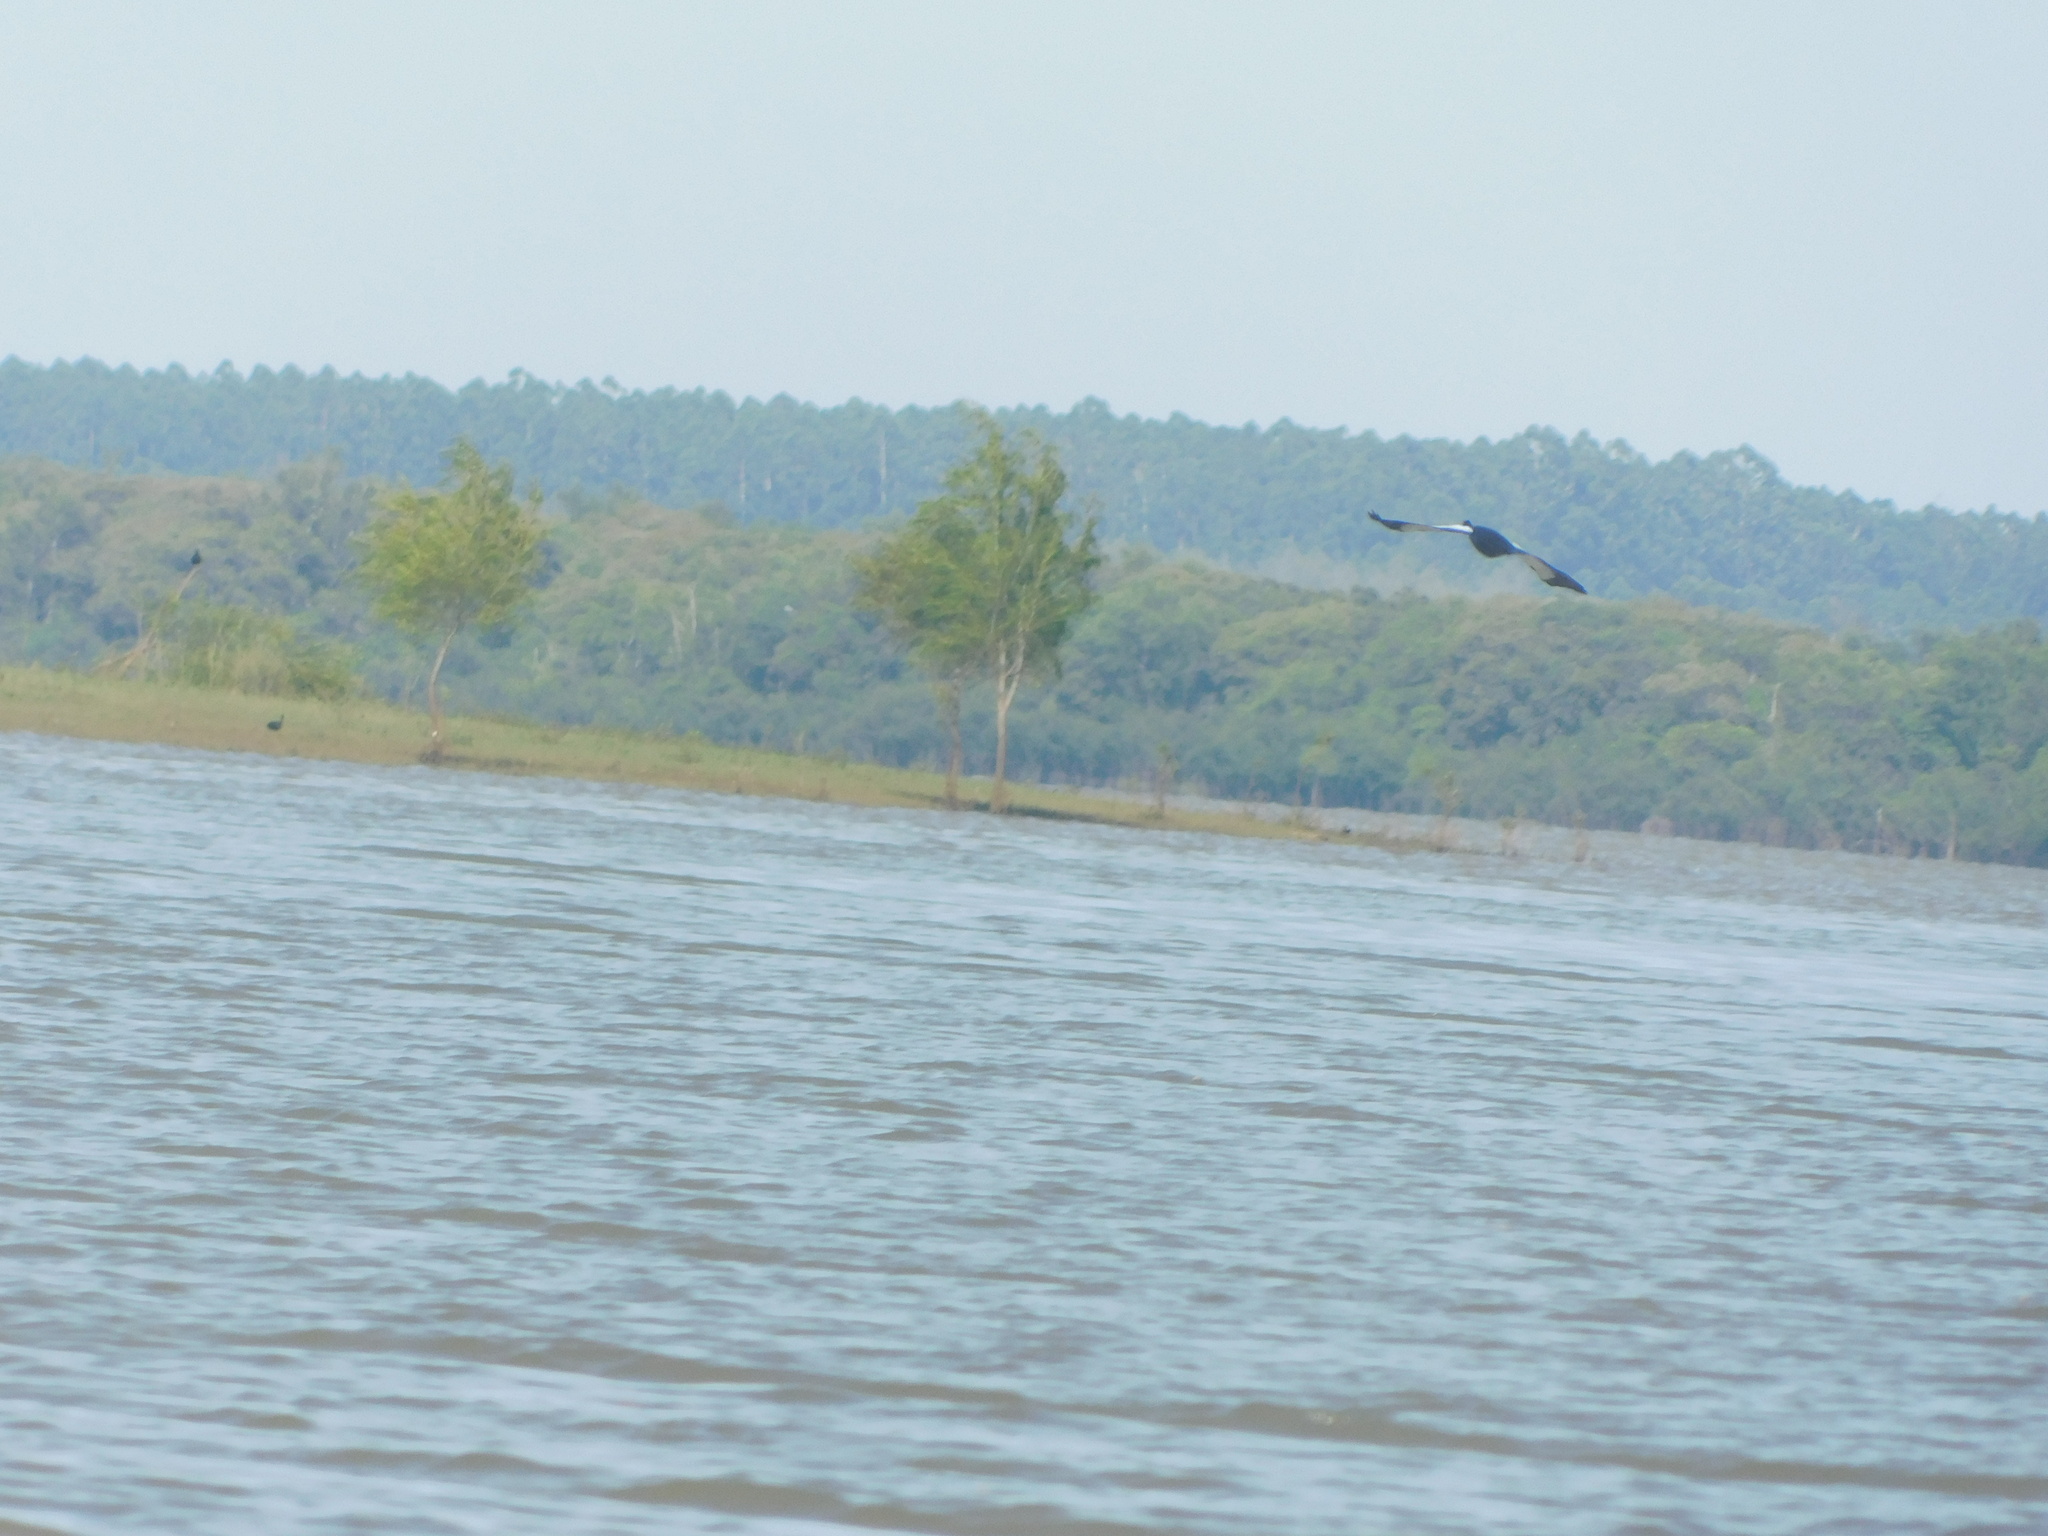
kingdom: Animalia
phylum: Chordata
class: Aves
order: Anseriformes
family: Anatidae
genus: Cairina
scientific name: Cairina moschata
